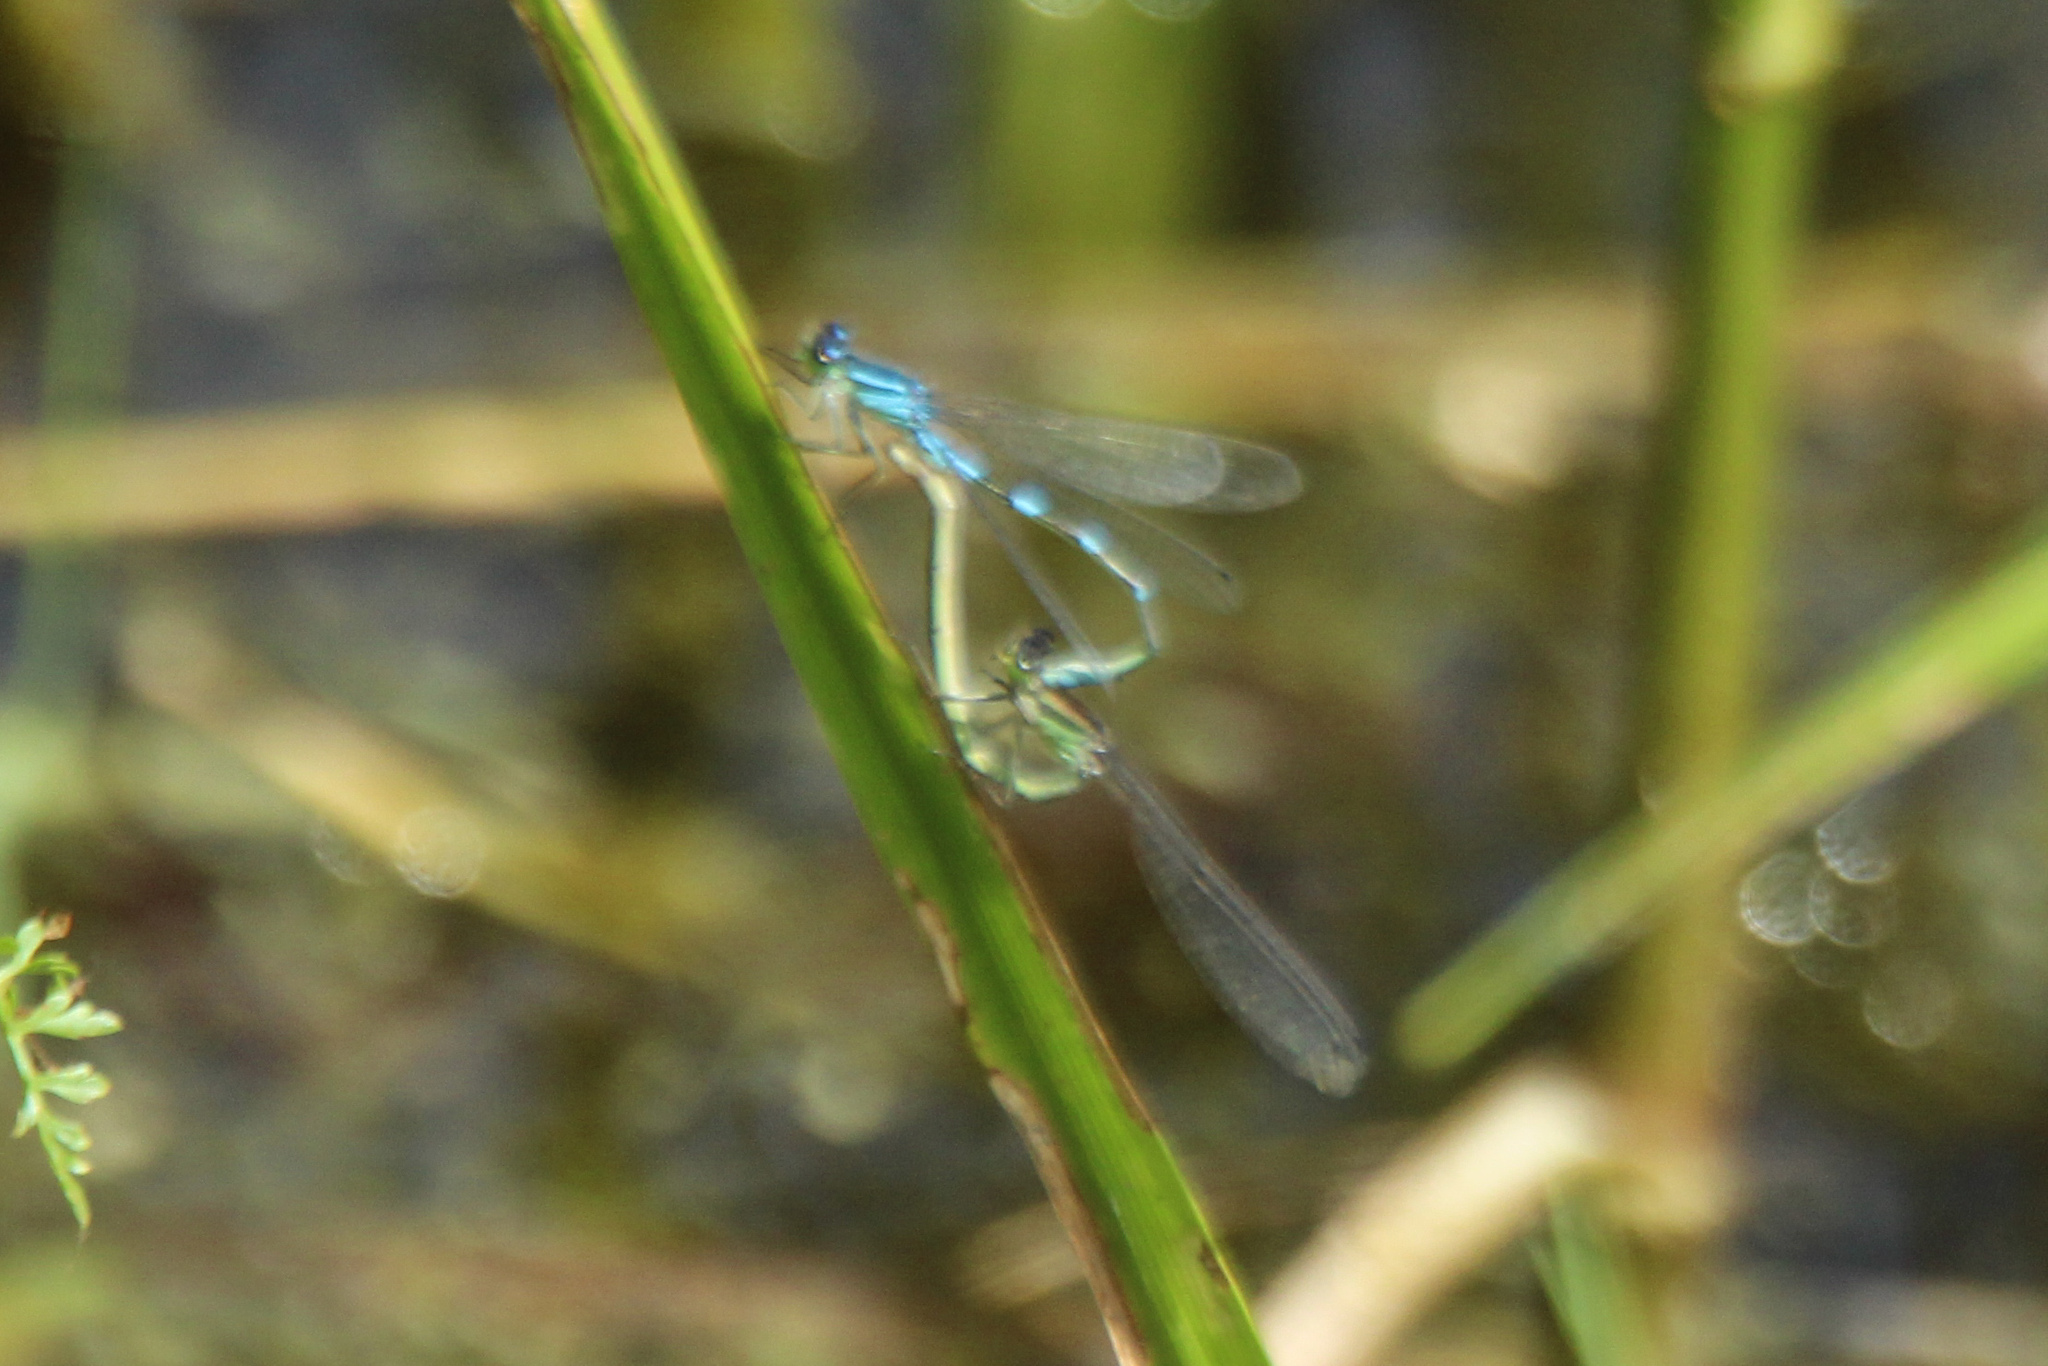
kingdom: Animalia
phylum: Arthropoda
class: Insecta
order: Odonata
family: Coenagrionidae
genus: Coenagrion
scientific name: Coenagrion lunulatum
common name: Irish damselfly
